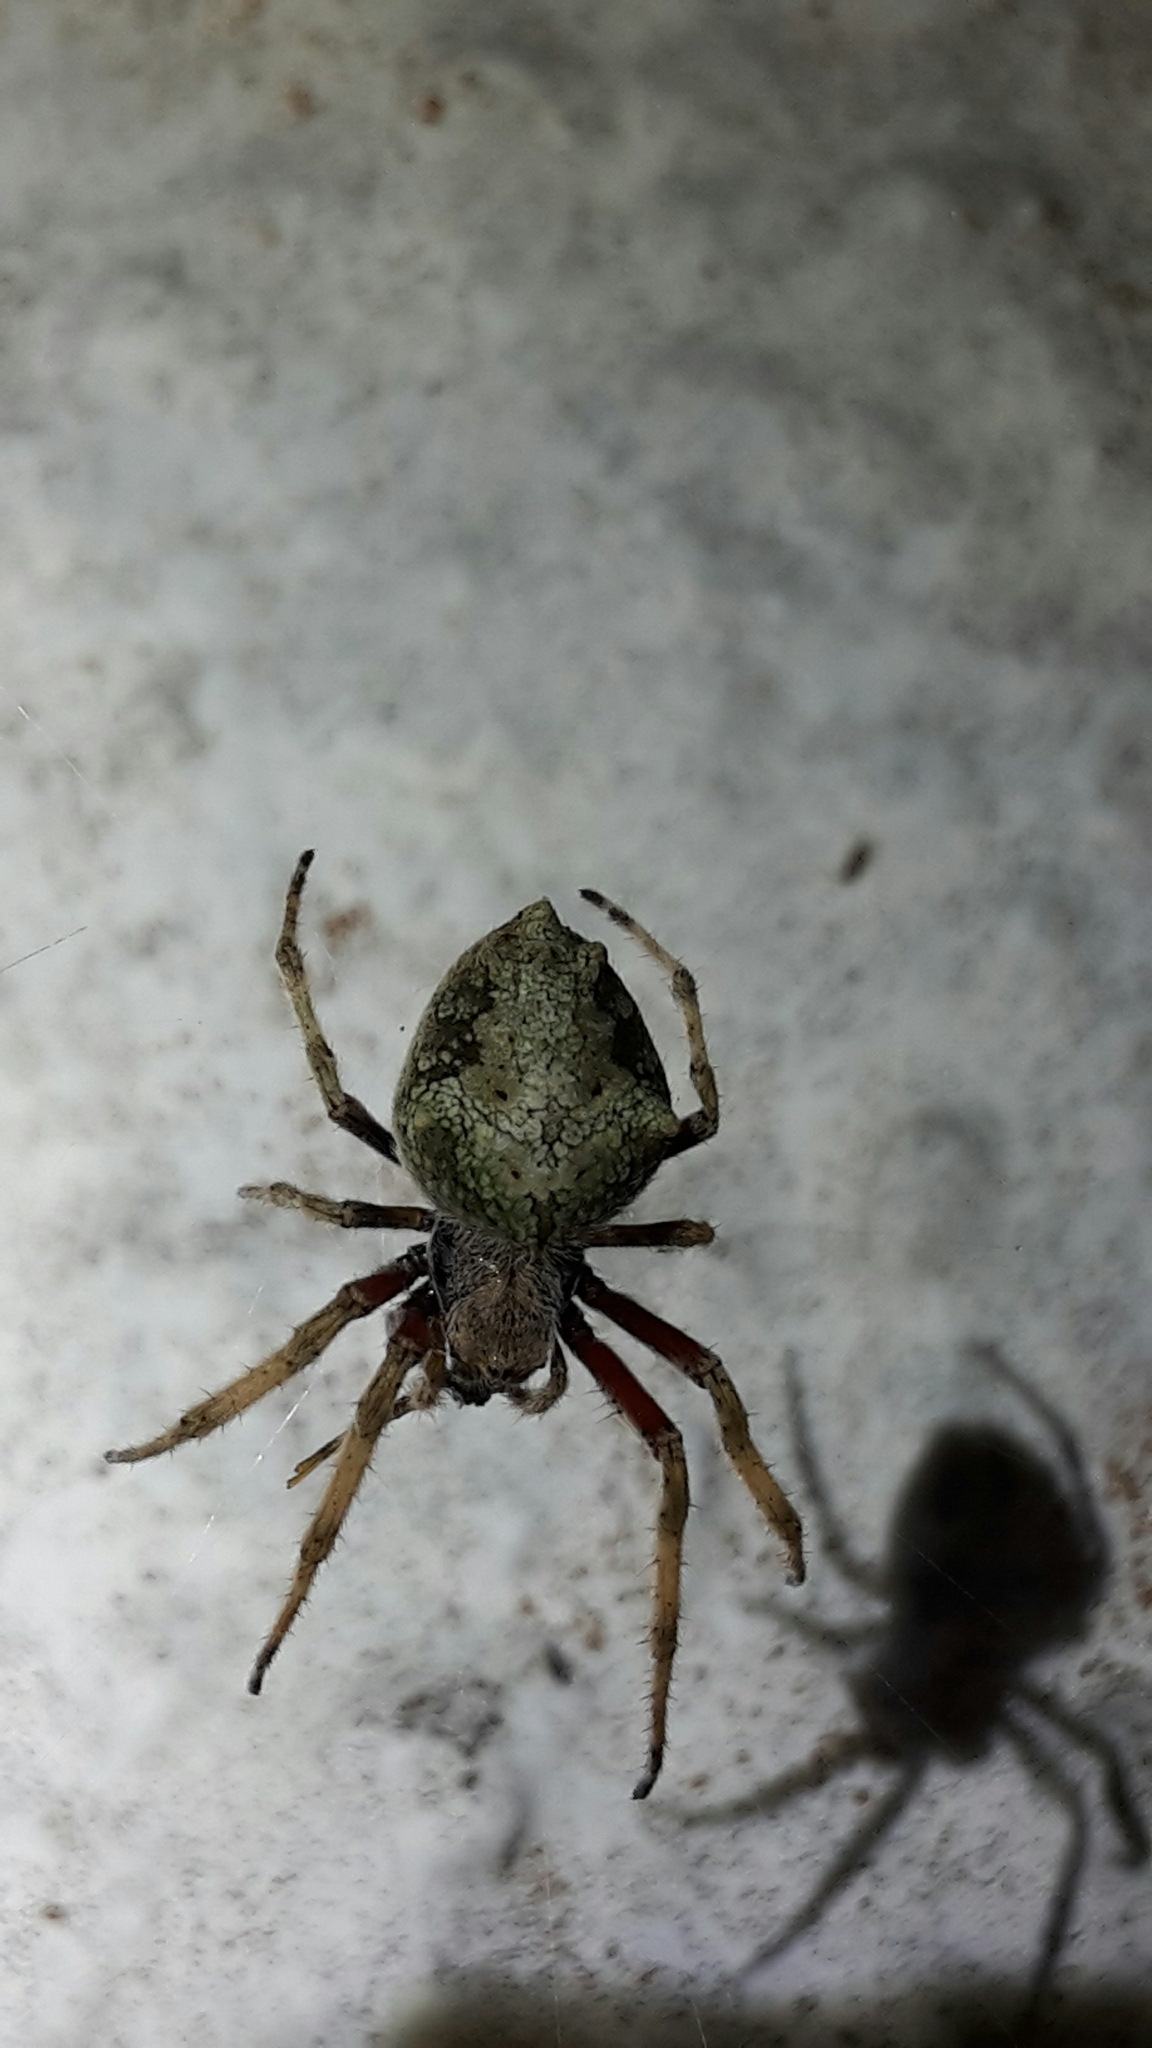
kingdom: Animalia
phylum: Arthropoda
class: Arachnida
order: Araneae
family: Araneidae
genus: Eriophora
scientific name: Eriophora pustulosa
